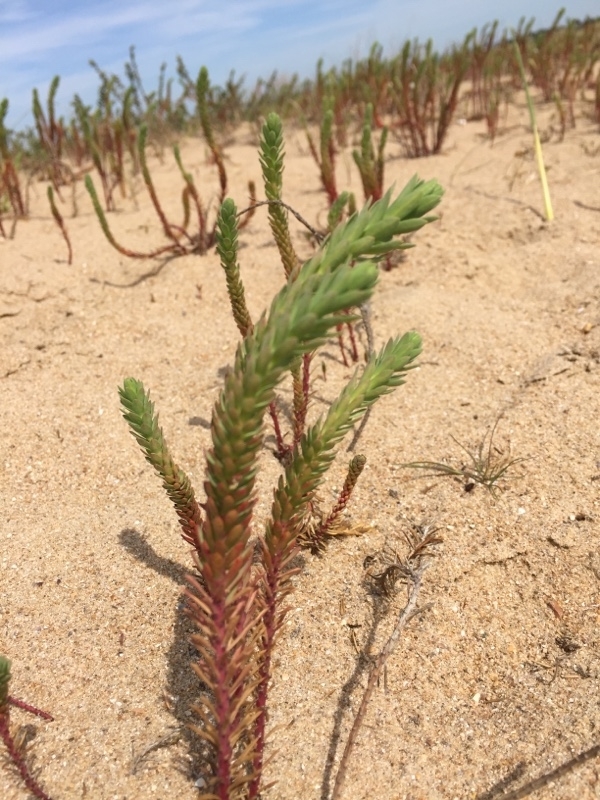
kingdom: Plantae
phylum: Tracheophyta
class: Magnoliopsida
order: Malpighiales
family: Euphorbiaceae
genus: Euphorbia
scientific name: Euphorbia paralias
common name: Sea spurge
